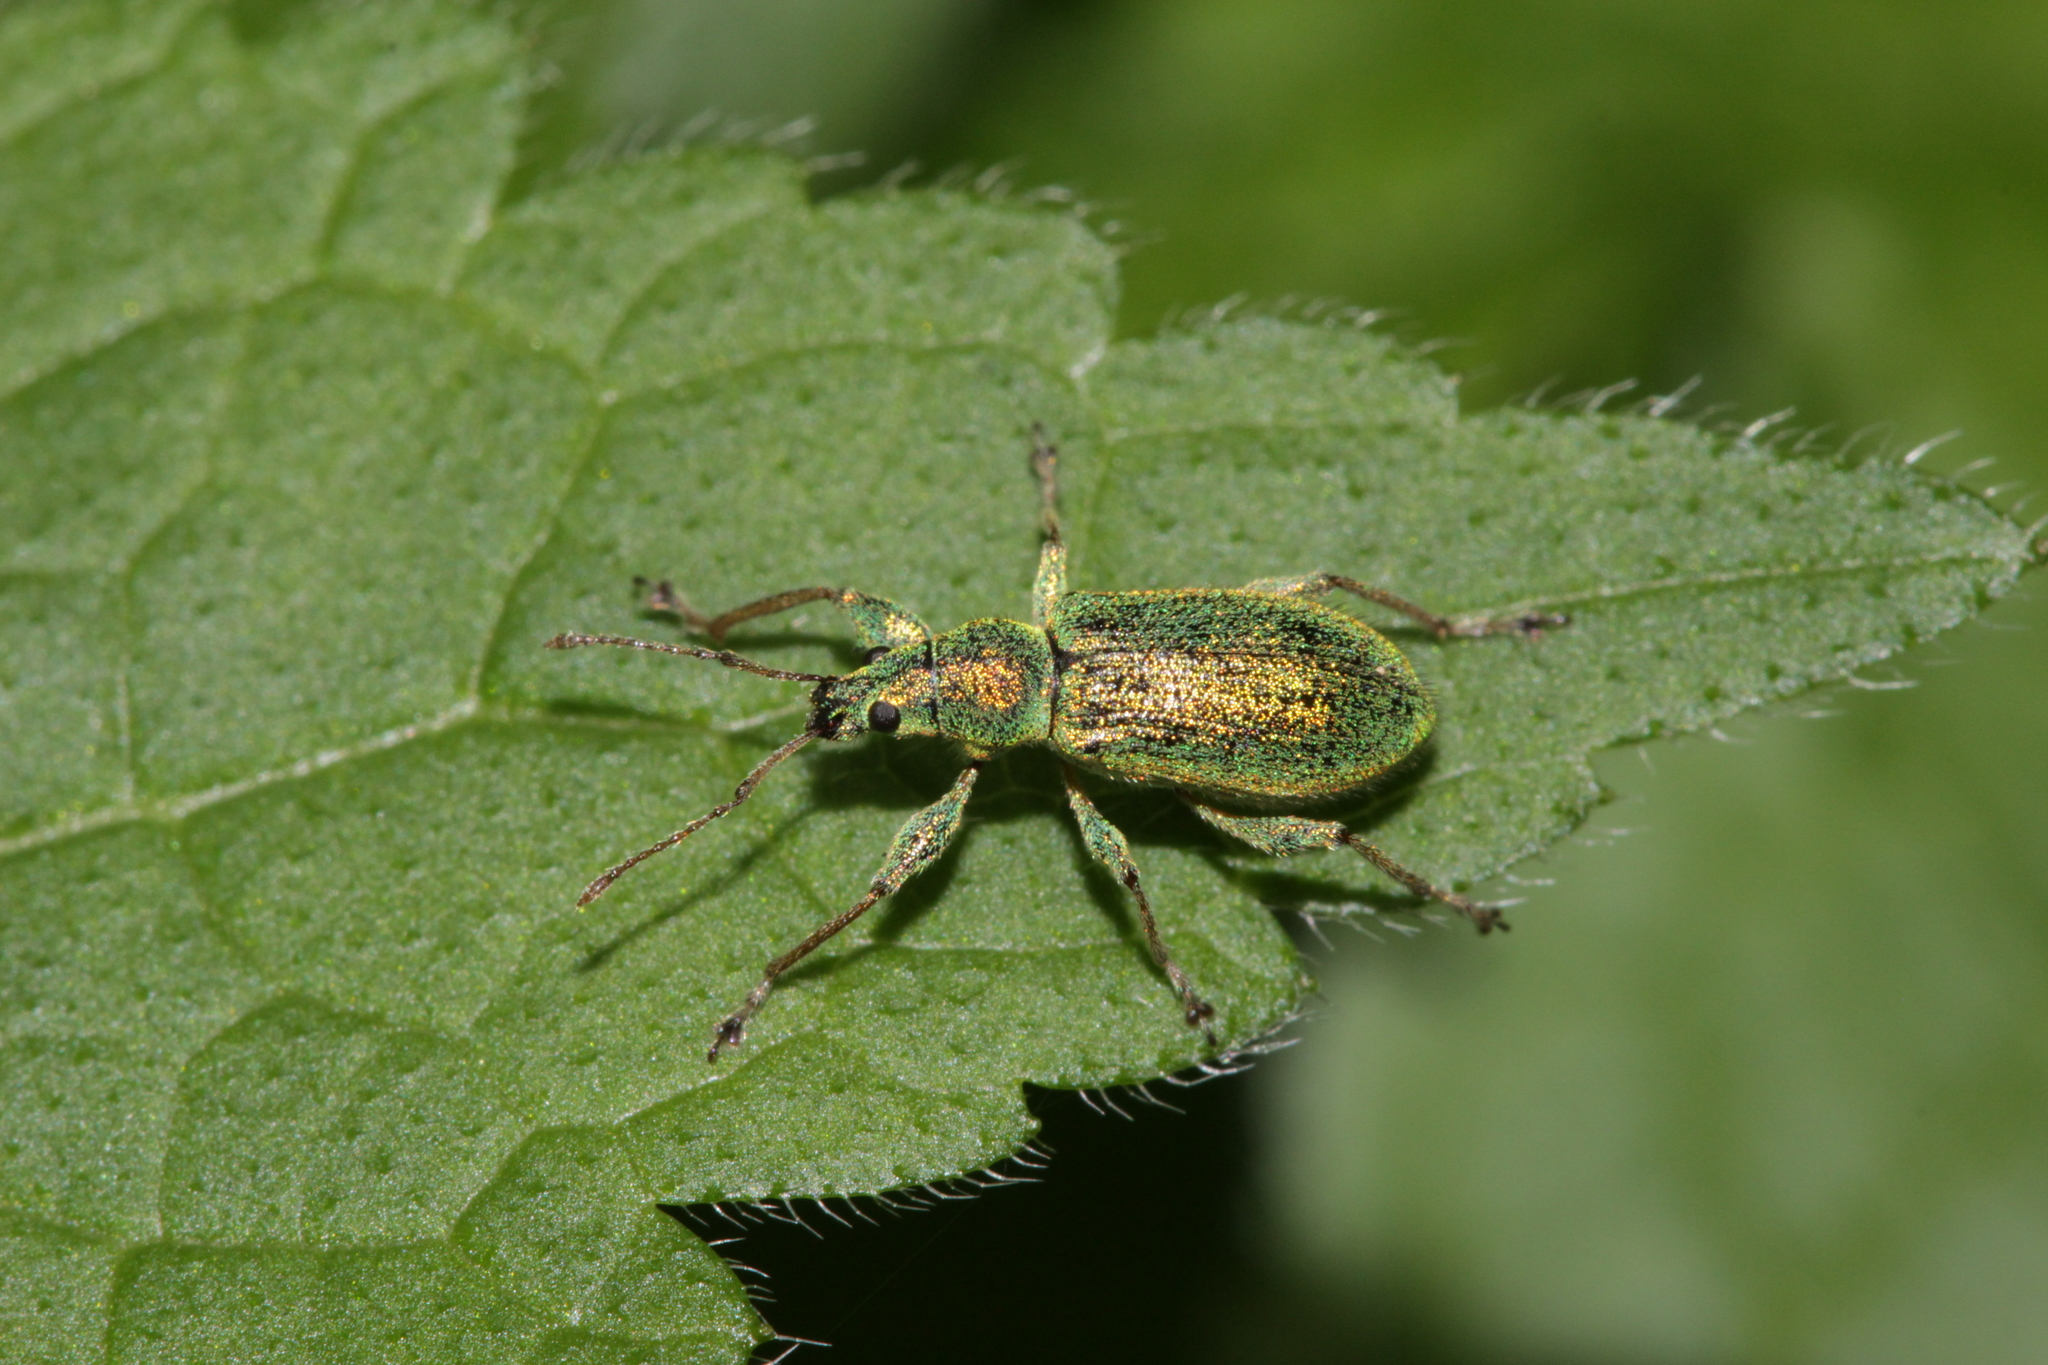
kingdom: Animalia
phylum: Arthropoda
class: Insecta
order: Coleoptera
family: Curculionidae
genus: Phyllobius
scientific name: Phyllobius arborator
